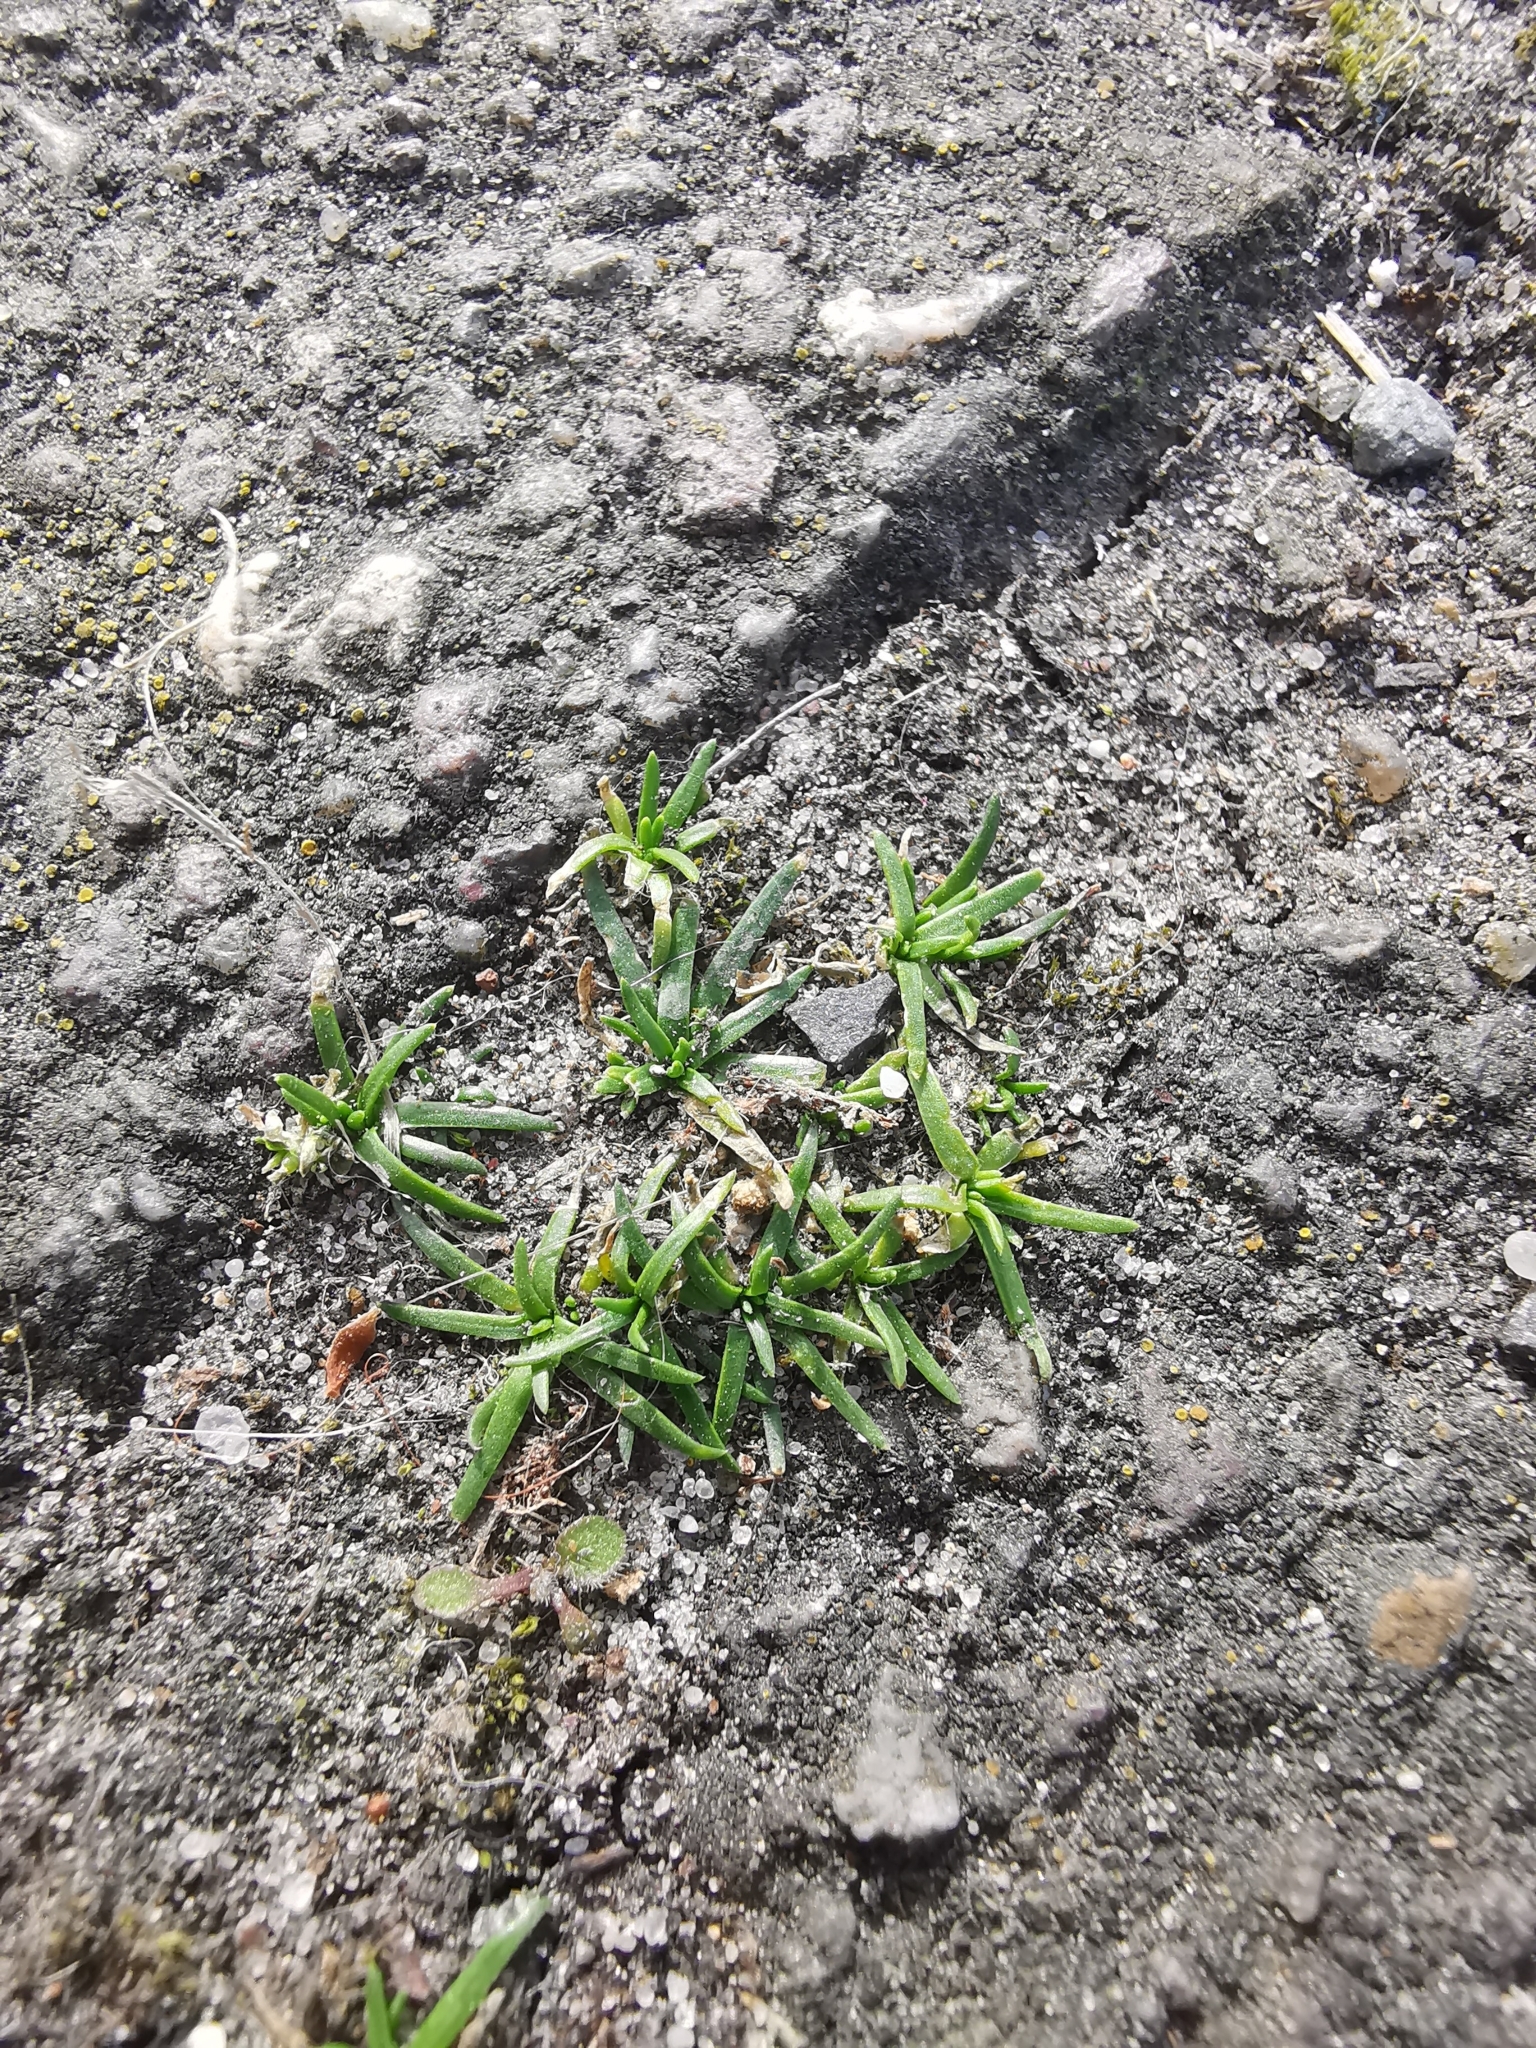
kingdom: Plantae
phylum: Tracheophyta
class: Magnoliopsida
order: Caryophyllales
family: Caryophyllaceae
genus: Sagina
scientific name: Sagina procumbens
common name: Procumbent pearlwort
